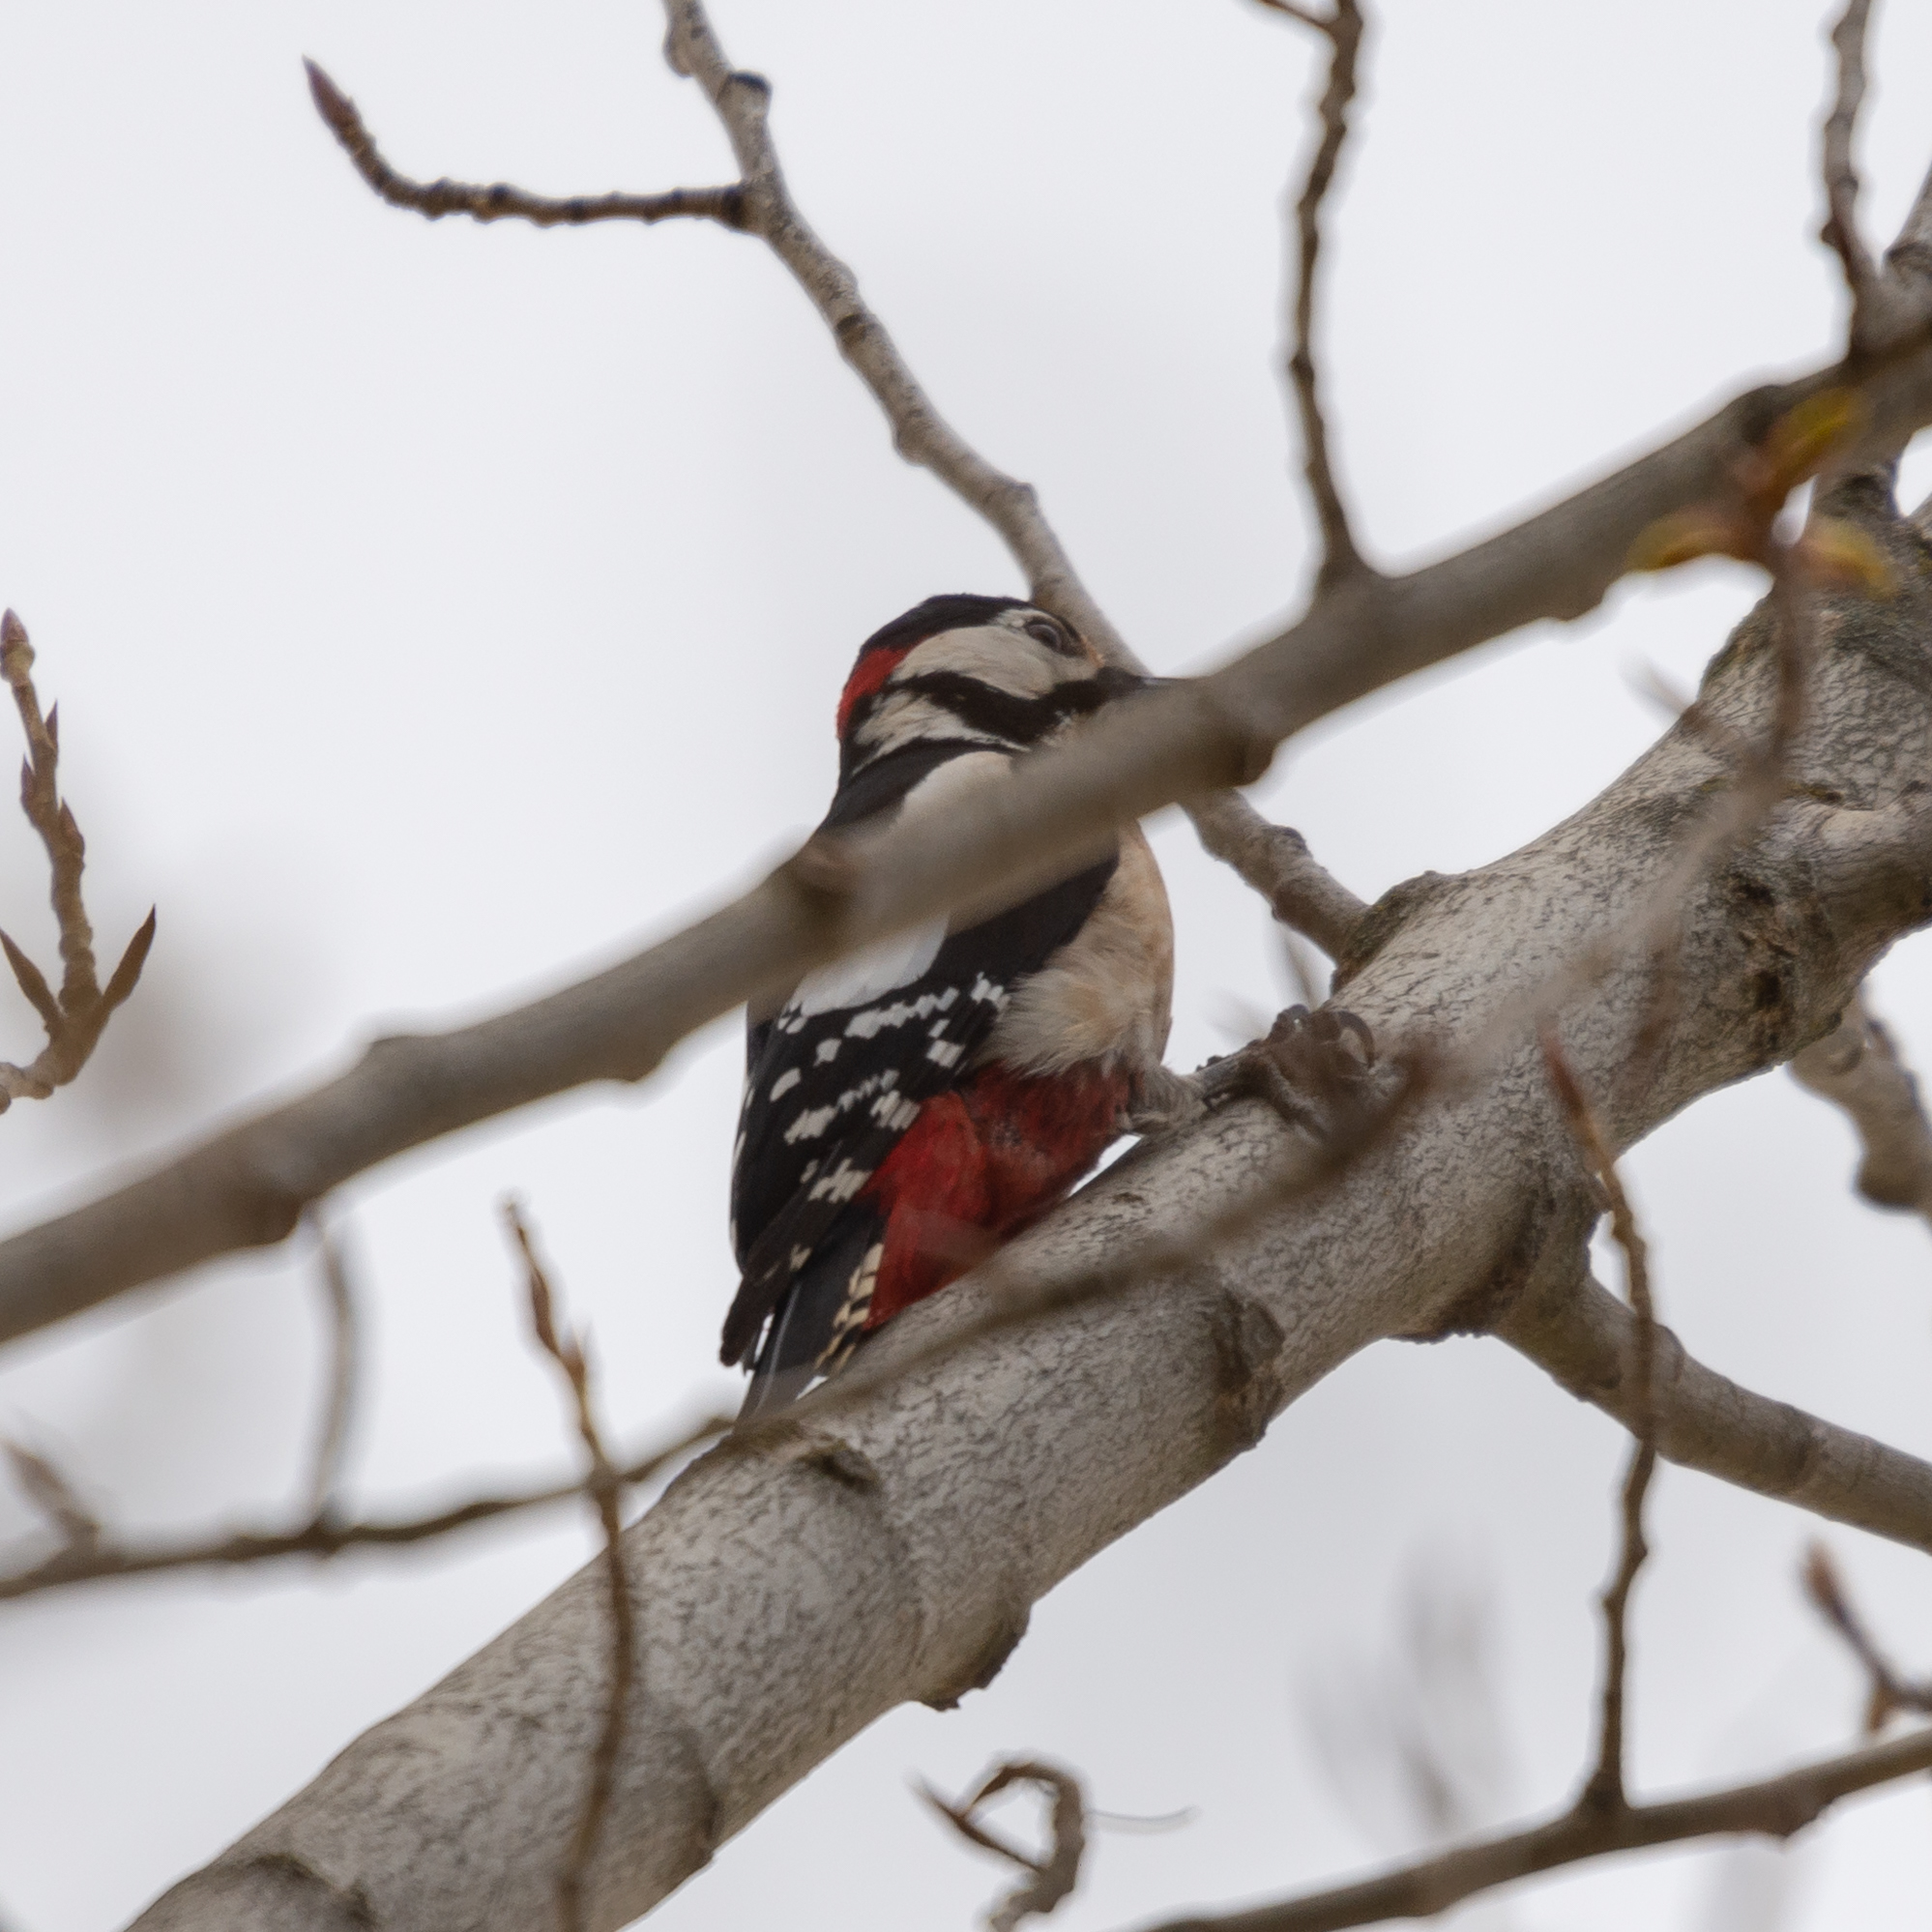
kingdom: Animalia
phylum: Chordata
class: Aves
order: Piciformes
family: Picidae
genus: Dendrocopos
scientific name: Dendrocopos major
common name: Great spotted woodpecker
